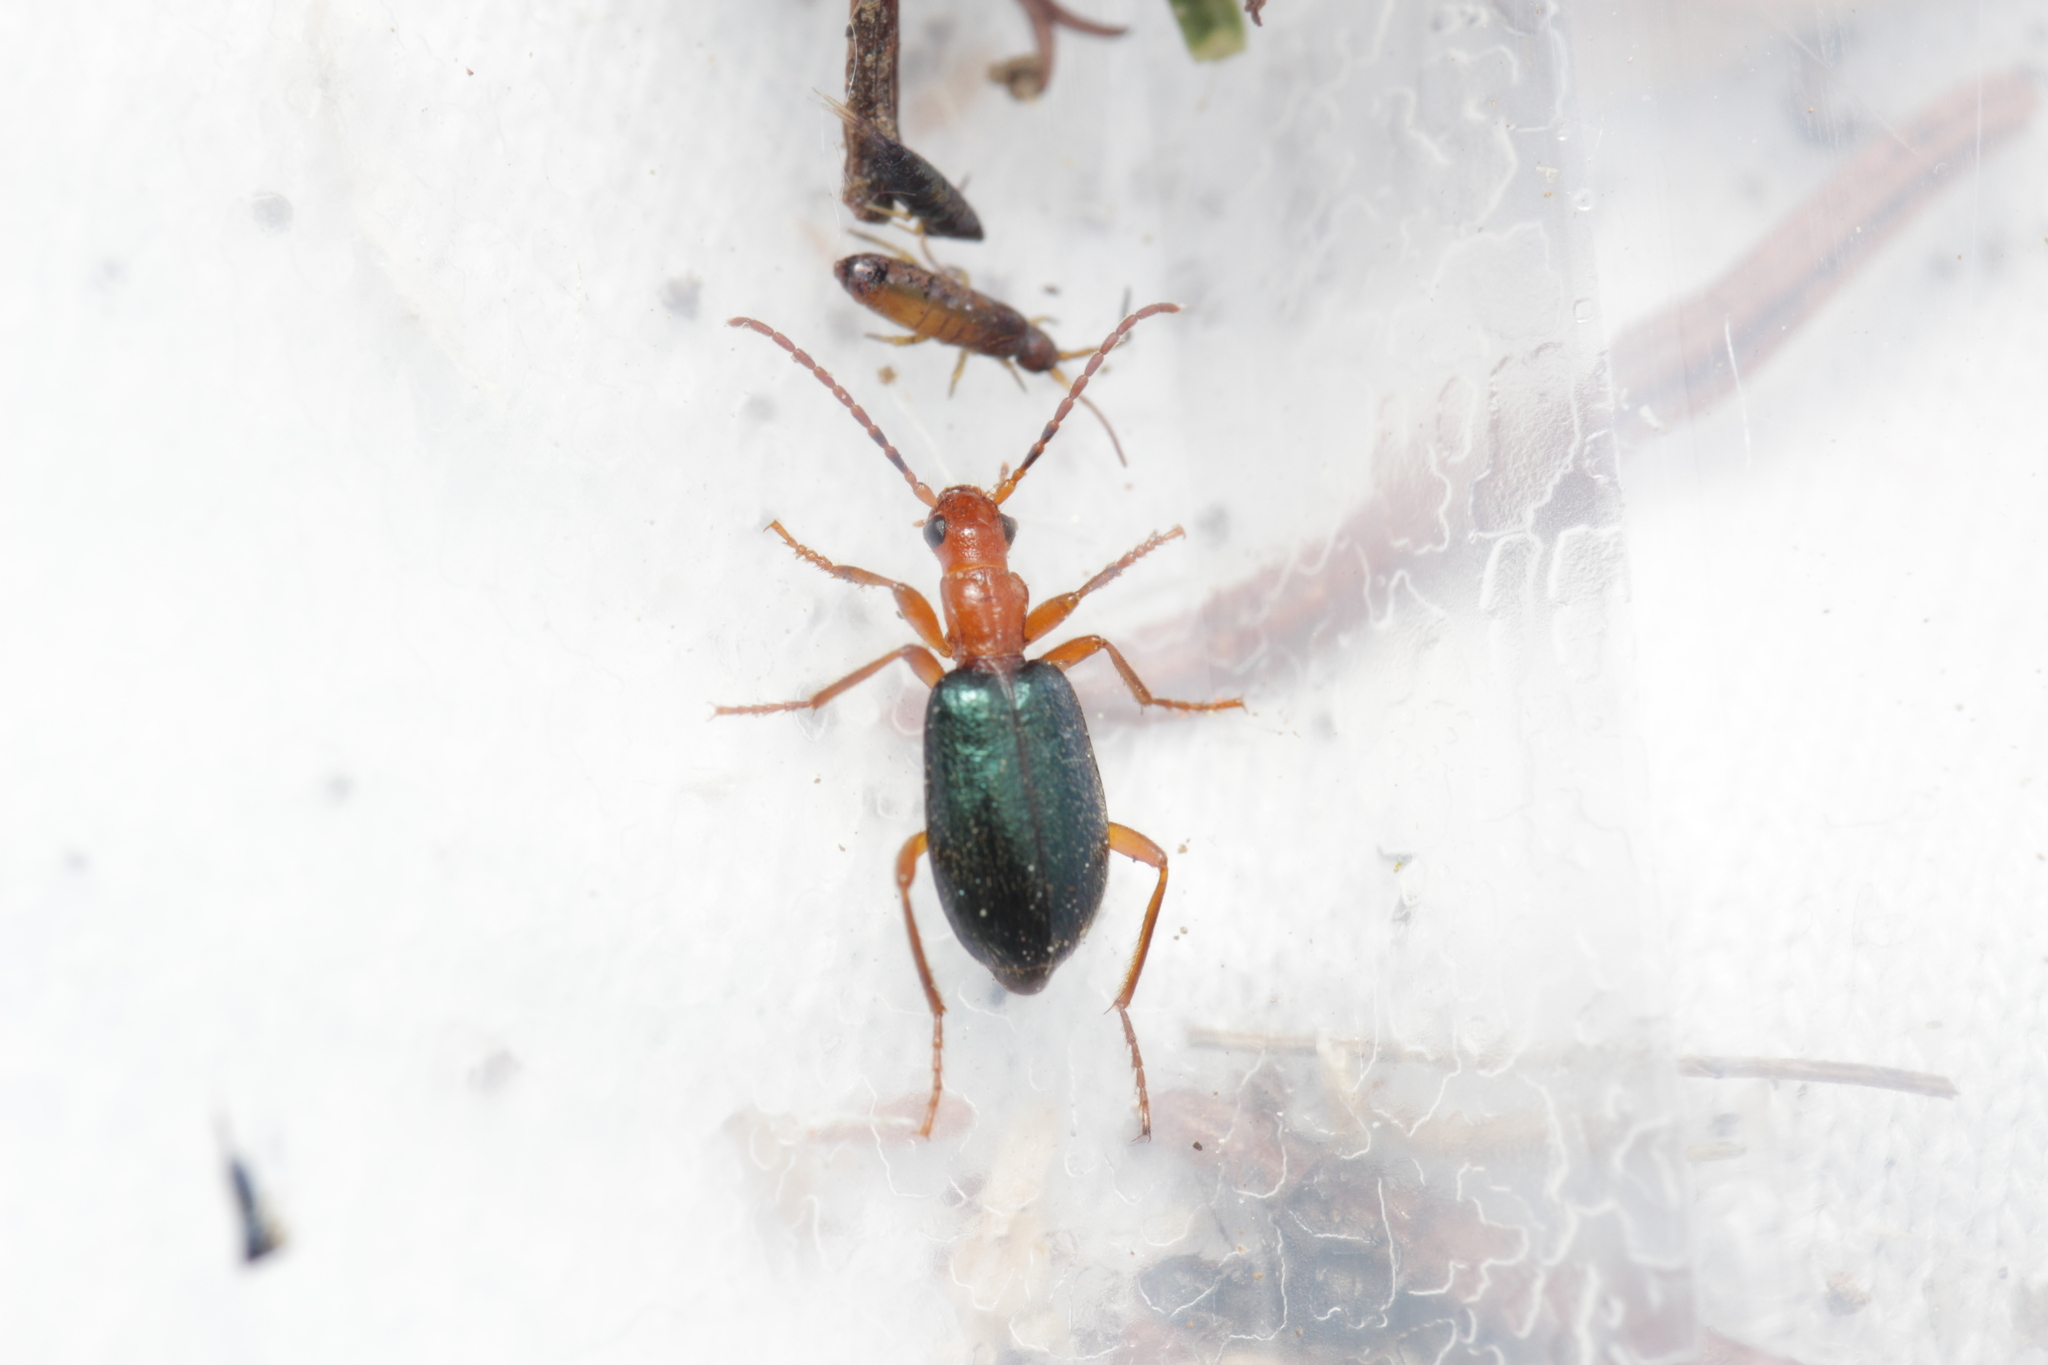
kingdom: Animalia
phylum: Arthropoda
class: Insecta
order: Coleoptera
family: Carabidae
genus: Brachinus
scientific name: Brachinus explodens
